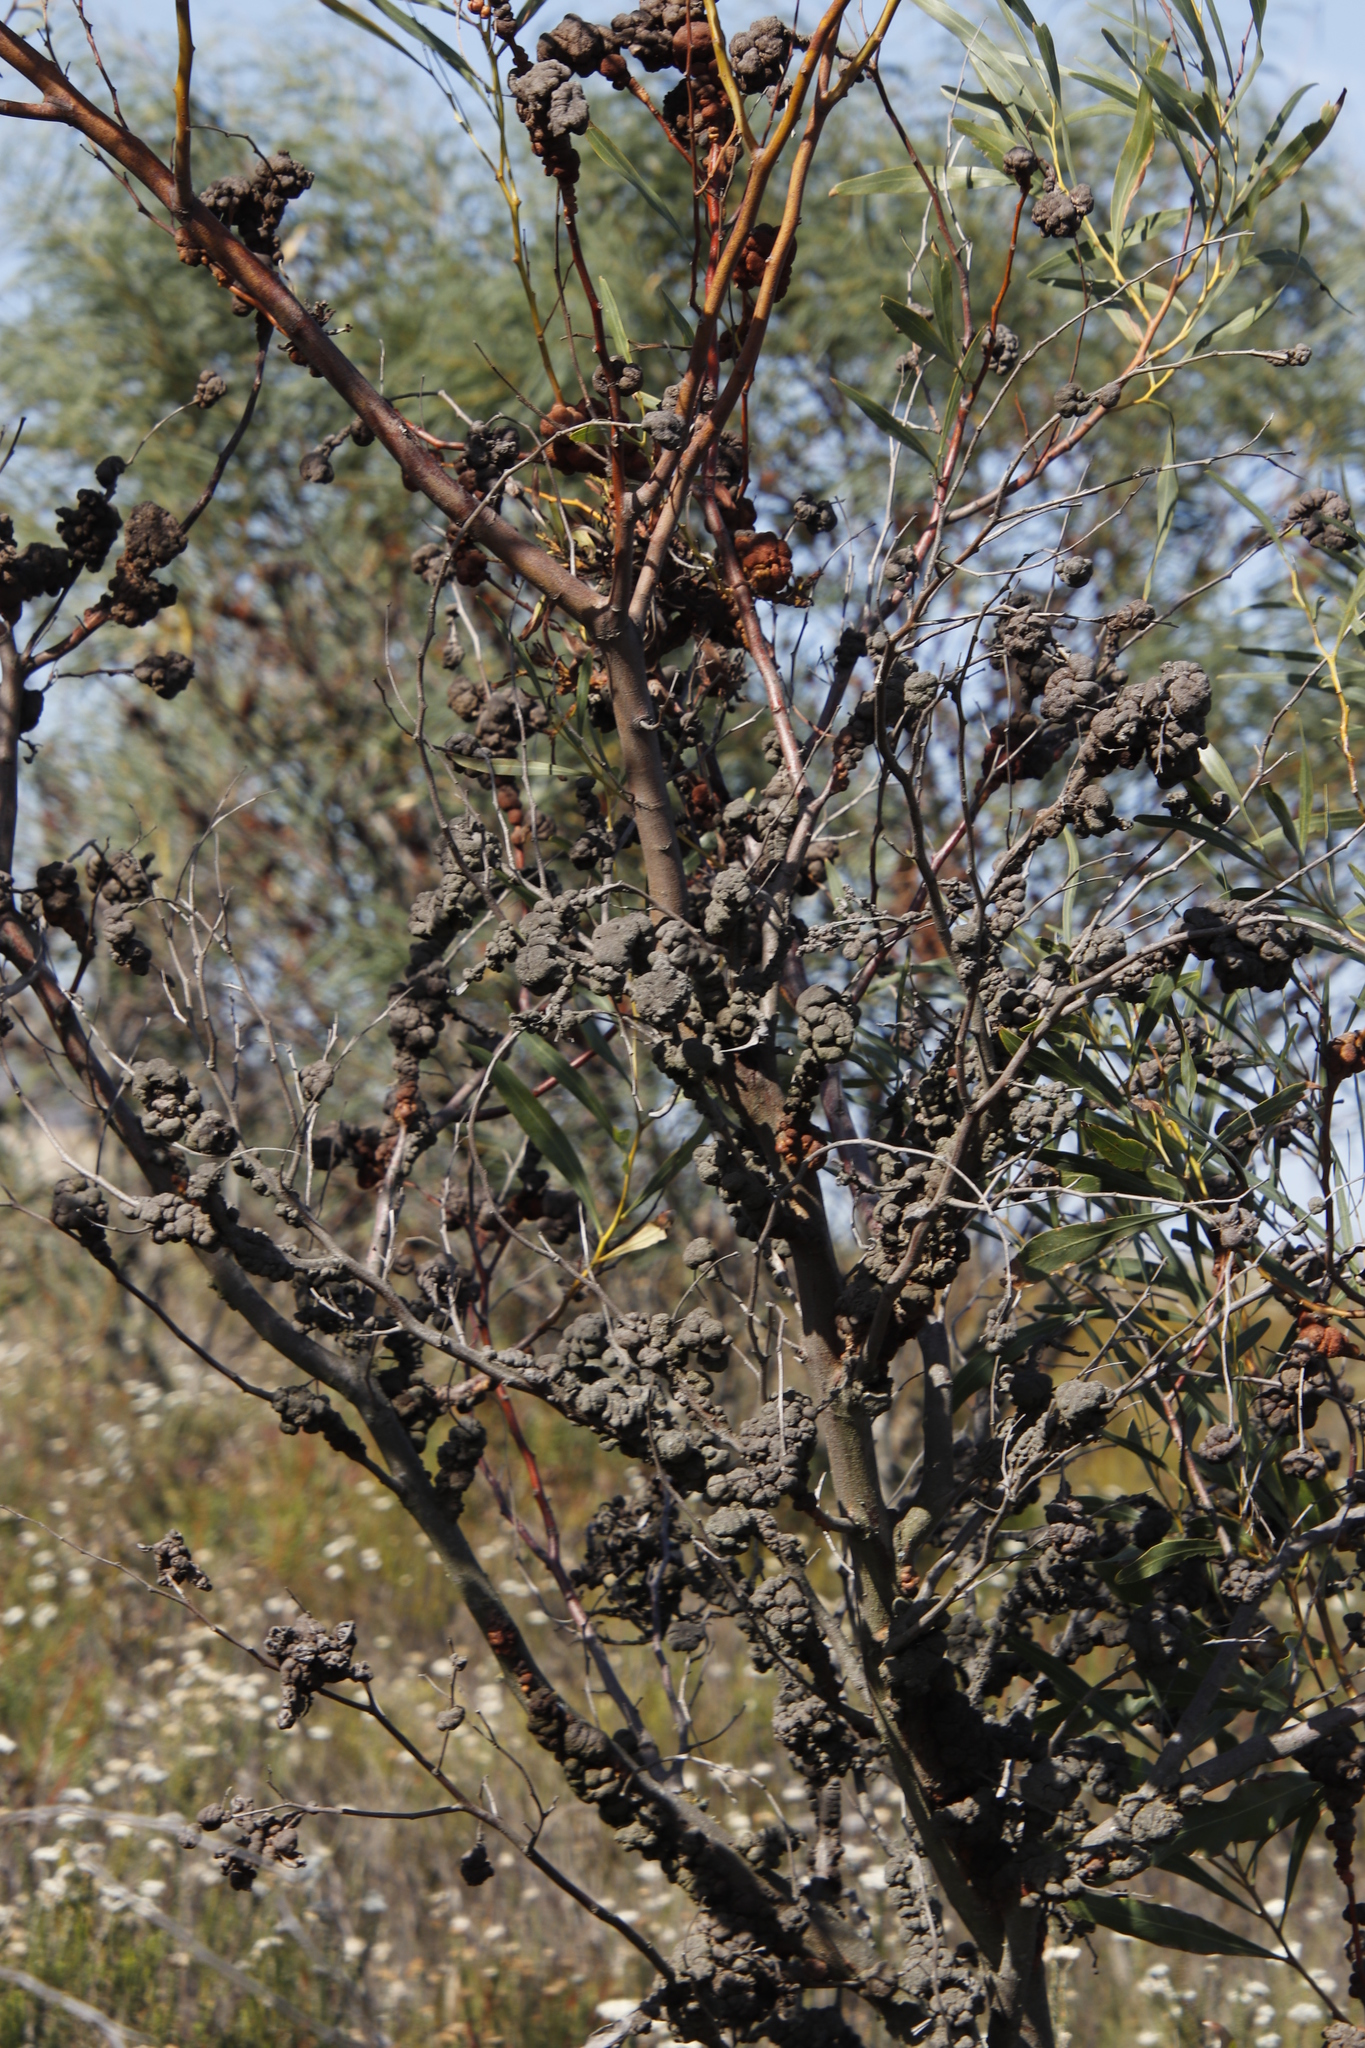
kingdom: Fungi
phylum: Basidiomycota
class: Pucciniomycetes
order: Pucciniales
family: Uromycladiaceae
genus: Uromycladium
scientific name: Uromycladium morrisii
